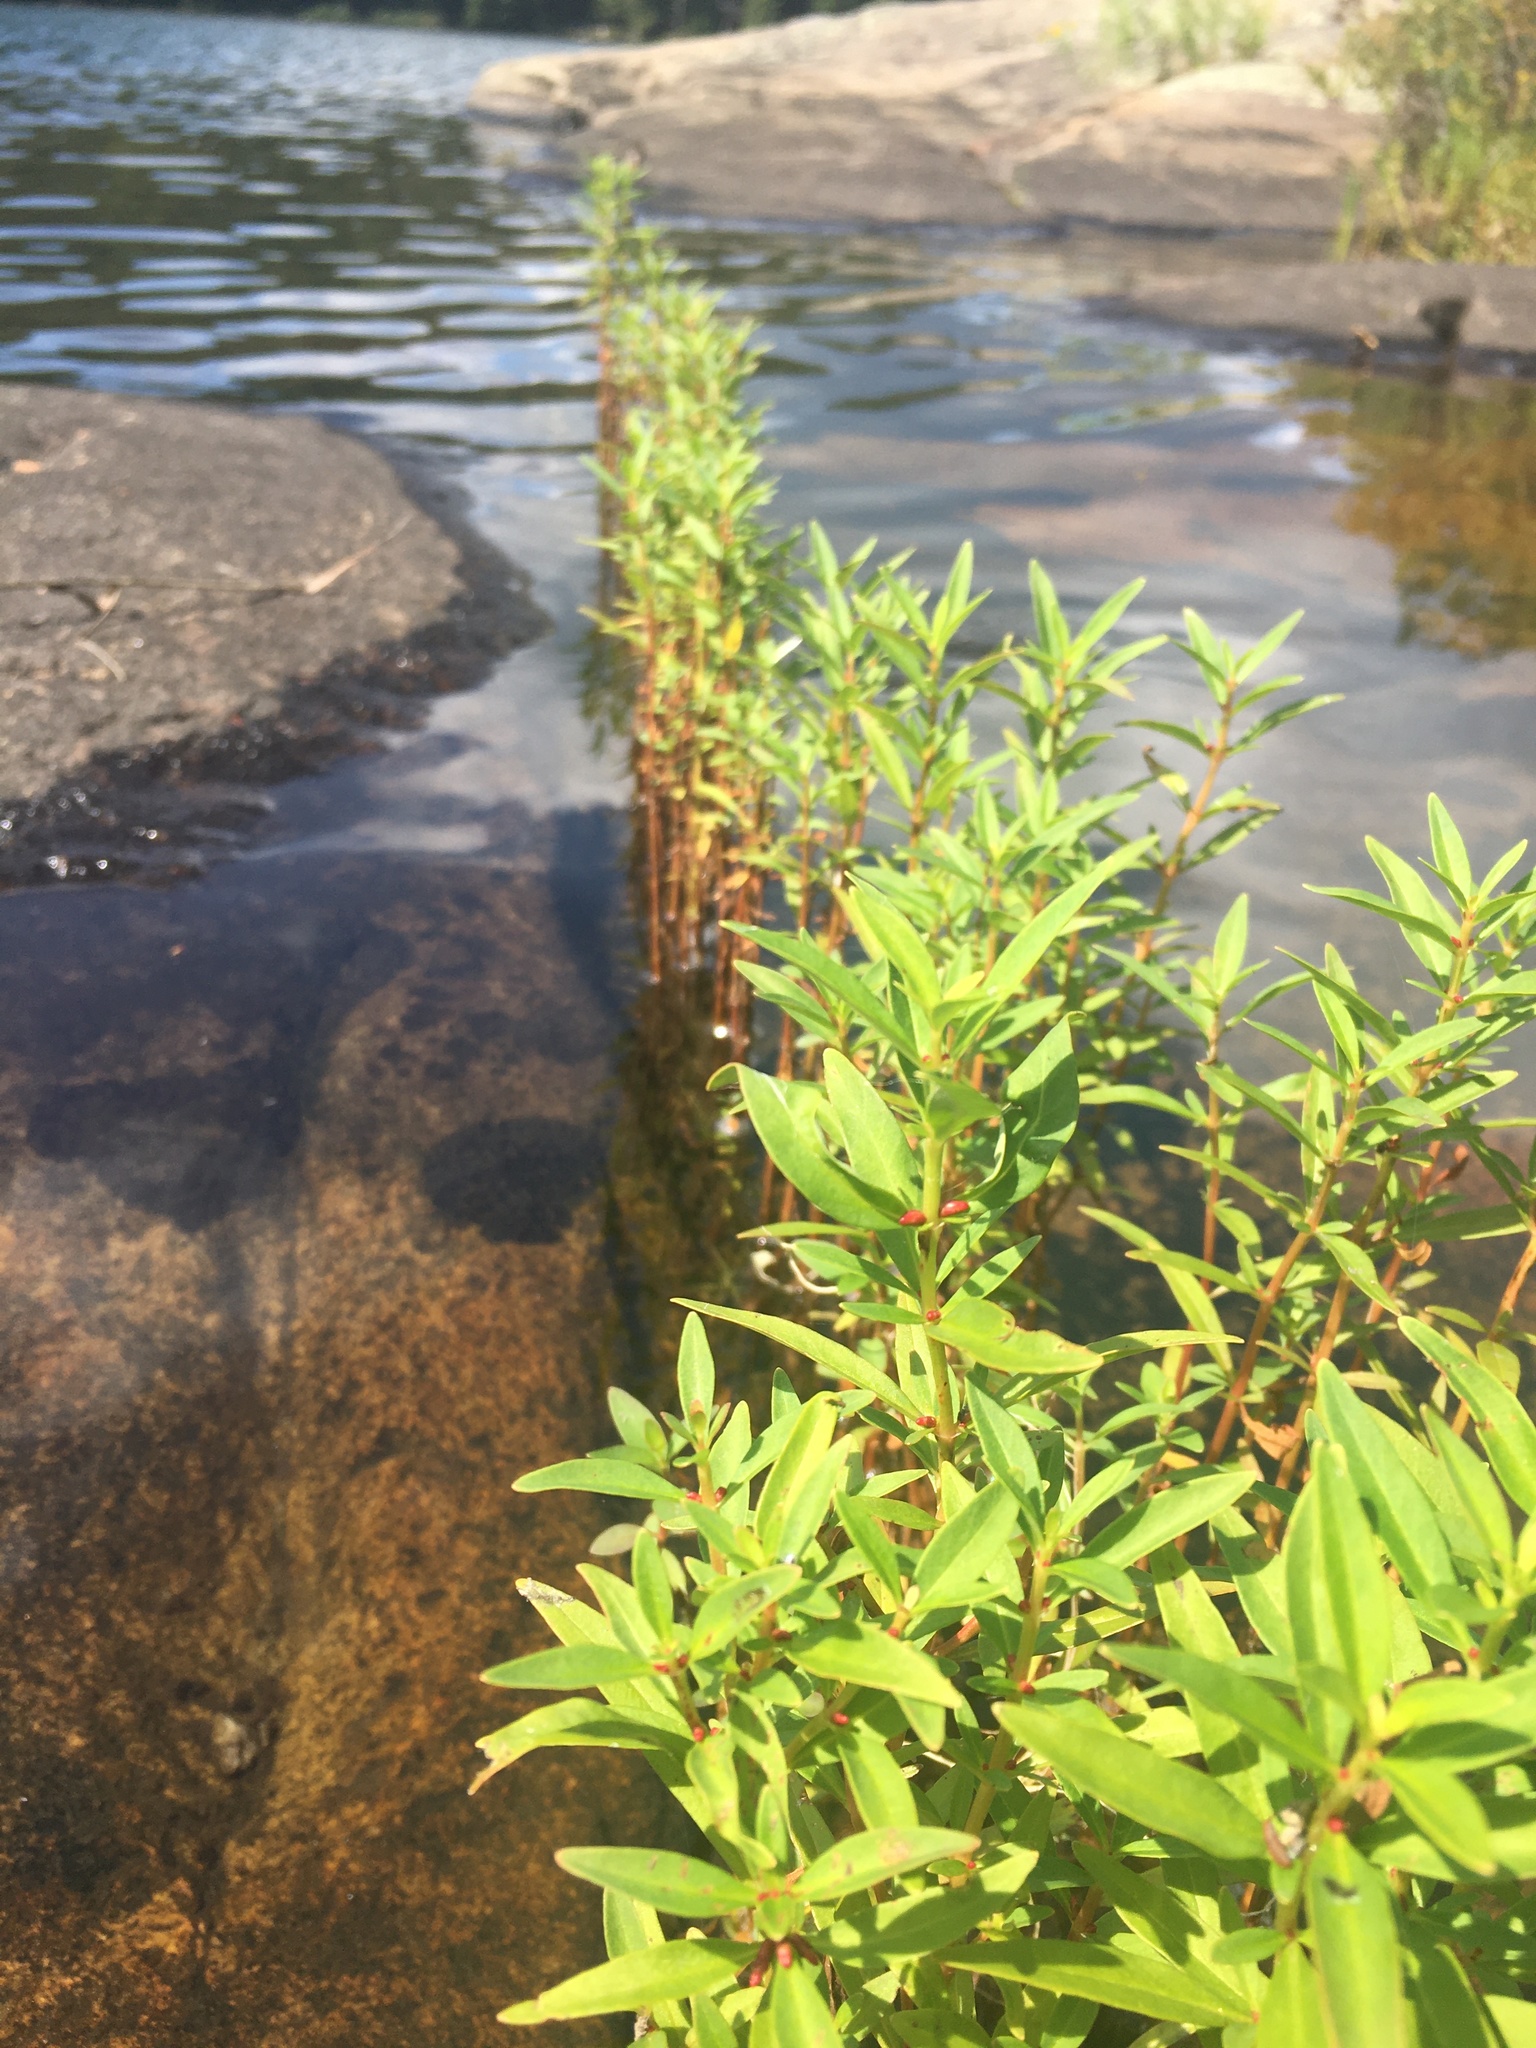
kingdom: Plantae
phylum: Tracheophyta
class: Magnoliopsida
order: Ericales
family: Primulaceae
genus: Lysimachia
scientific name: Lysimachia terrestris
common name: Lake loosestrife
